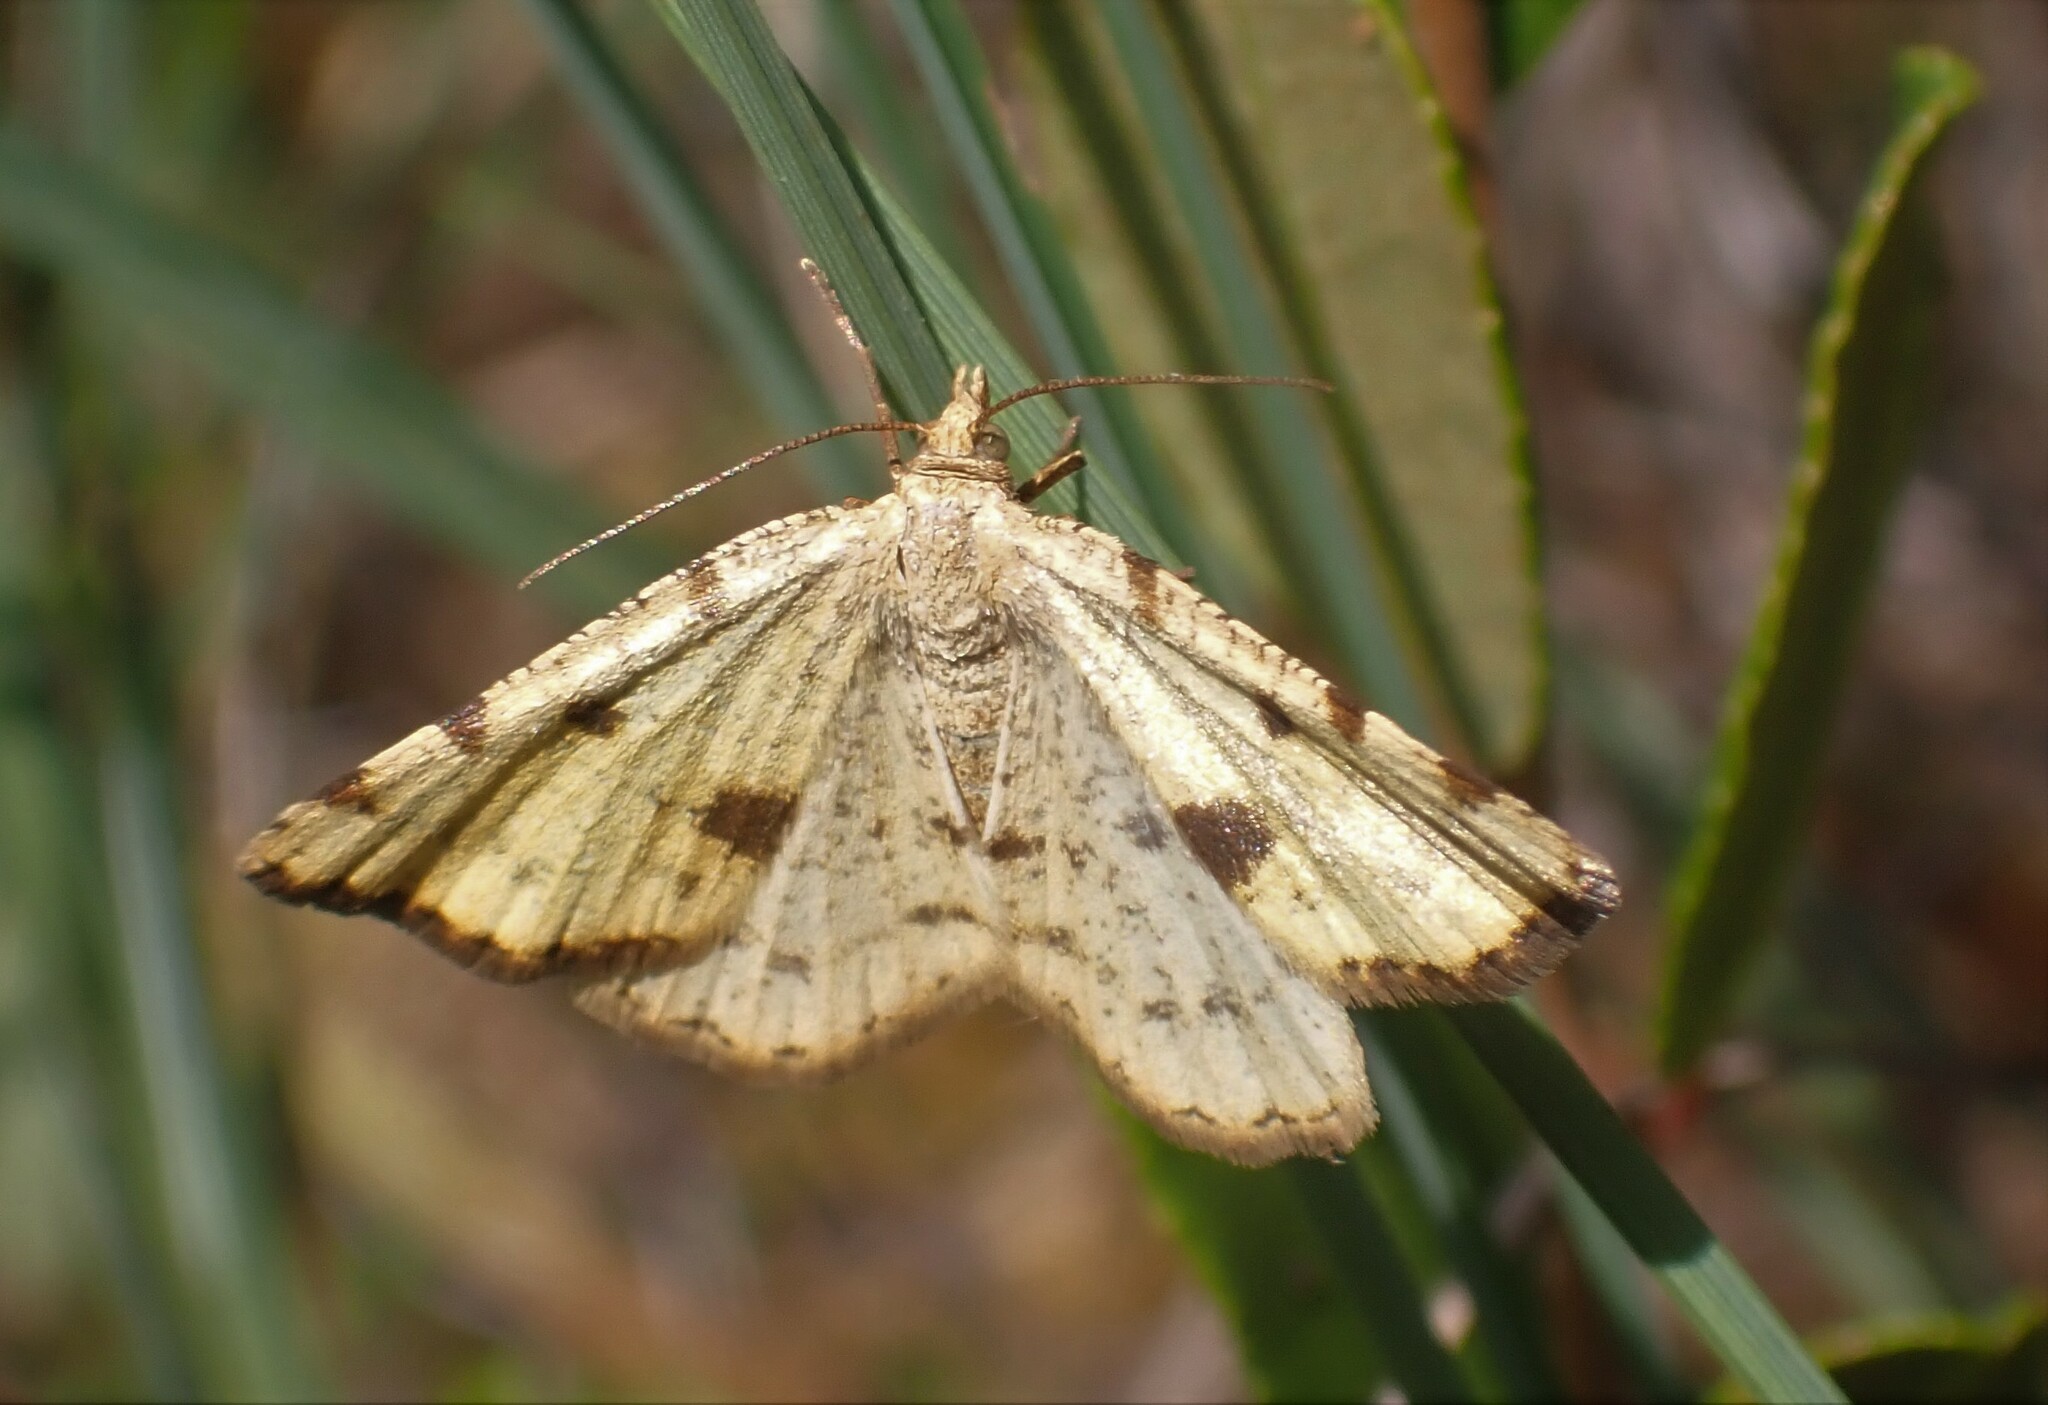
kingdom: Animalia
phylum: Arthropoda
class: Insecta
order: Lepidoptera
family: Geometridae
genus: Macaria
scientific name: Macaria sulphurea
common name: Sulphur angle
